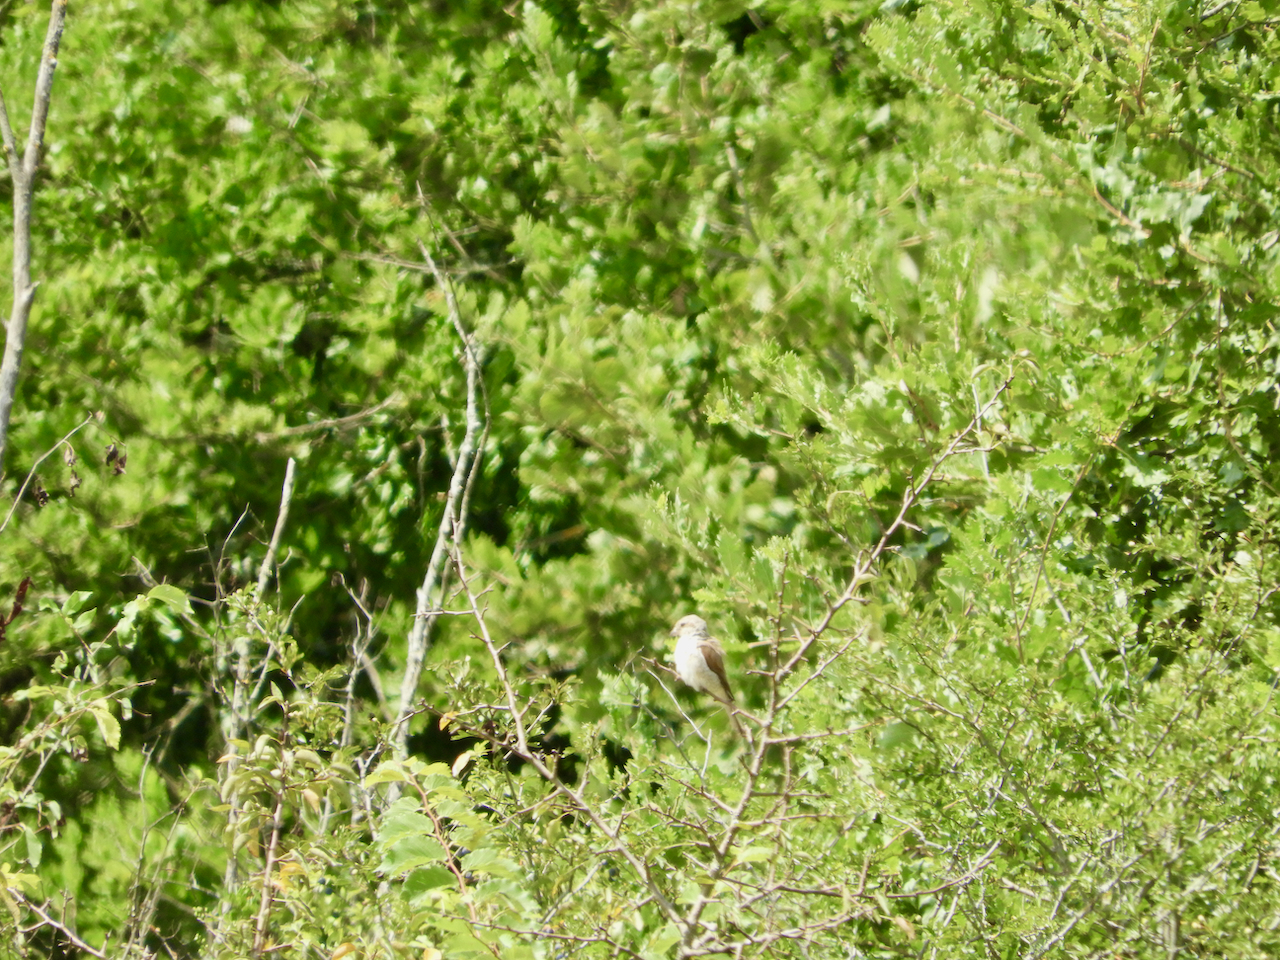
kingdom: Animalia
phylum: Chordata
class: Aves
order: Passeriformes
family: Laniidae
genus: Lanius
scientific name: Lanius collurio
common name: Red-backed shrike
